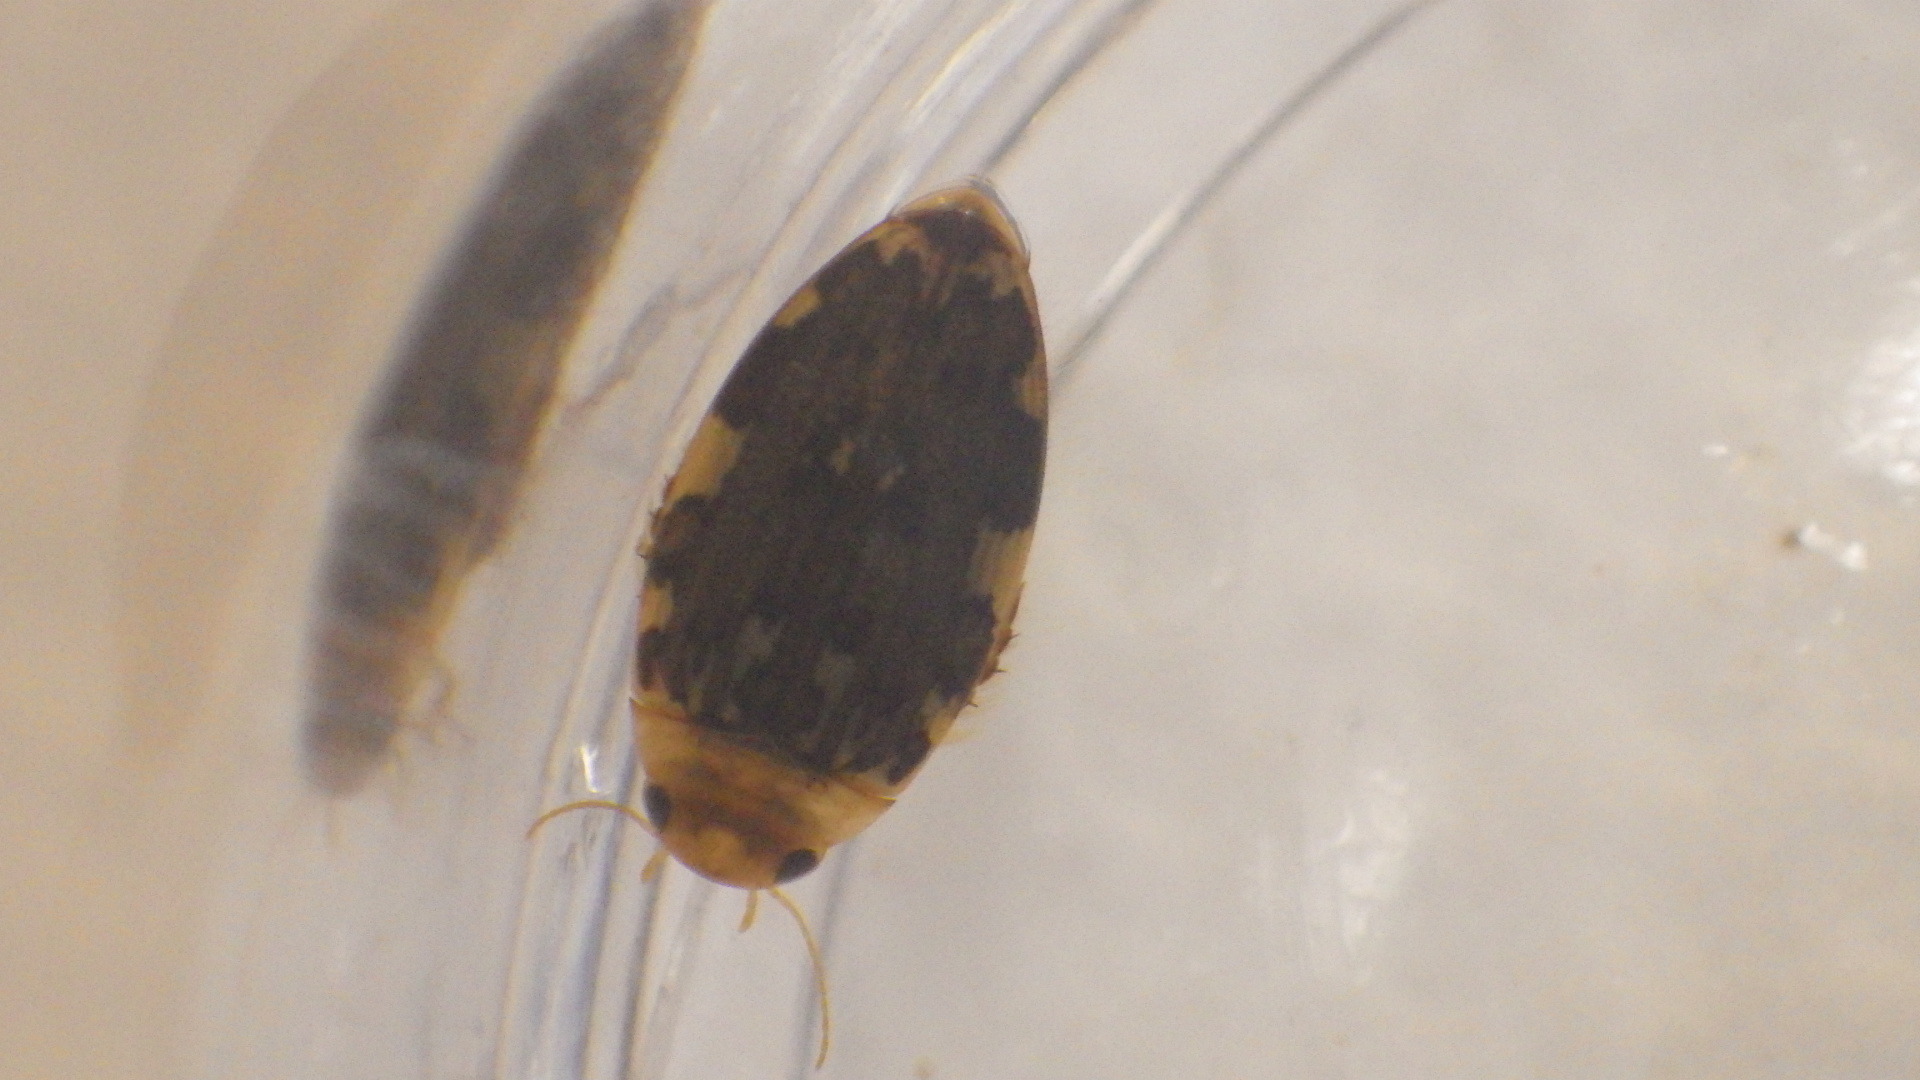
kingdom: Animalia
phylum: Arthropoda
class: Insecta
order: Coleoptera
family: Dytiscidae
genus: Laccophilus
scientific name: Laccophilus maculosus
